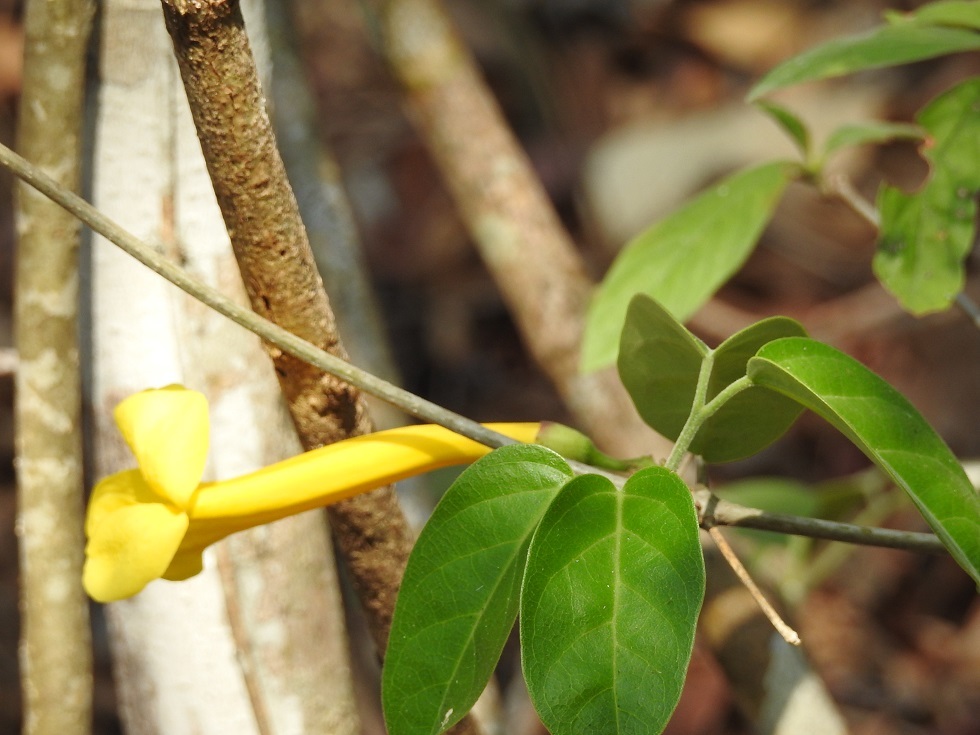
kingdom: Plantae
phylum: Tracheophyta
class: Magnoliopsida
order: Lamiales
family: Bignoniaceae
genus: Anemopaegma
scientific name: Anemopaegma chrysanthum
